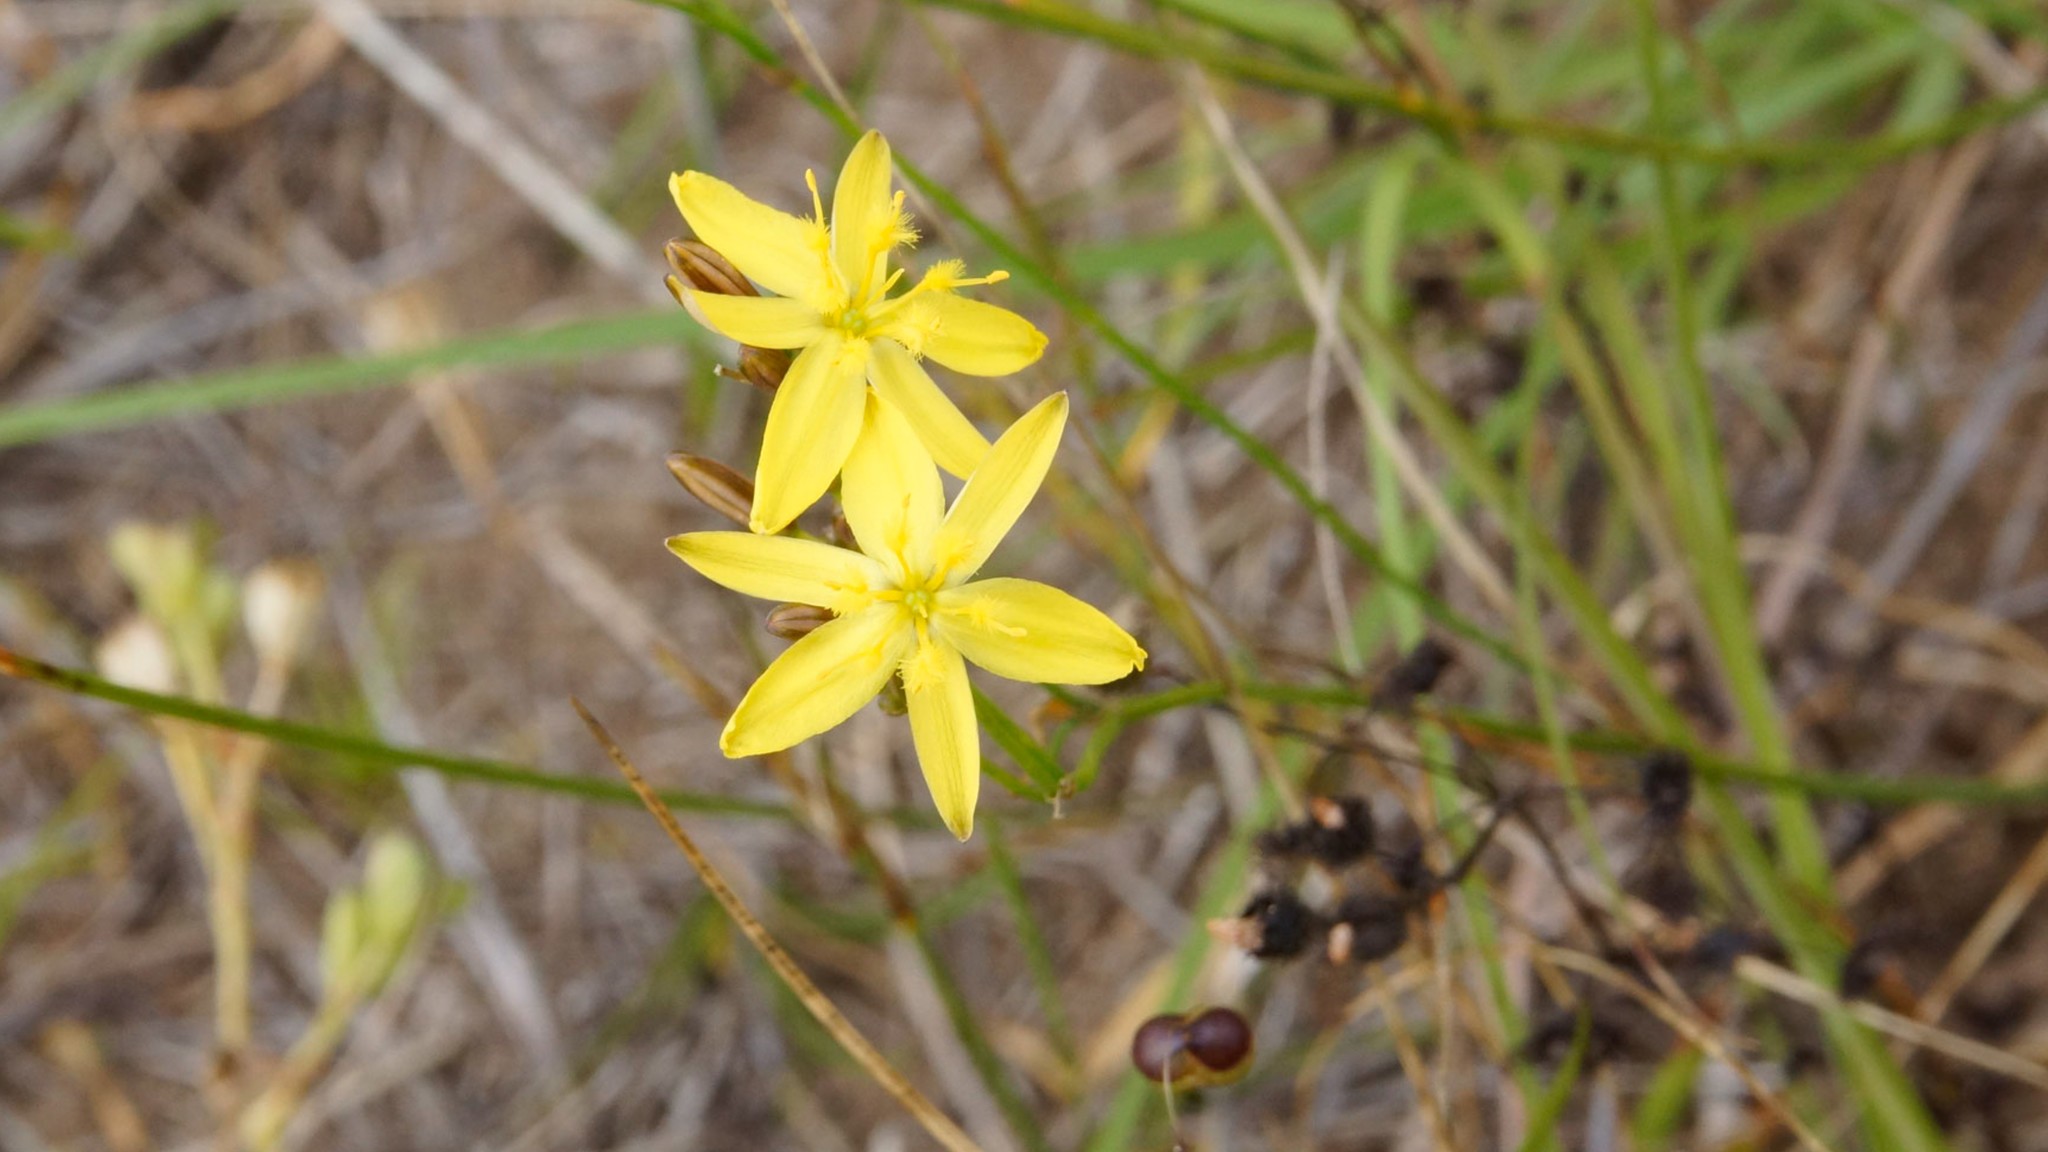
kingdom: Plantae
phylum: Tracheophyta
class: Liliopsida
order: Asparagales
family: Asphodelaceae
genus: Tricoryne
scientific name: Tricoryne elatior
